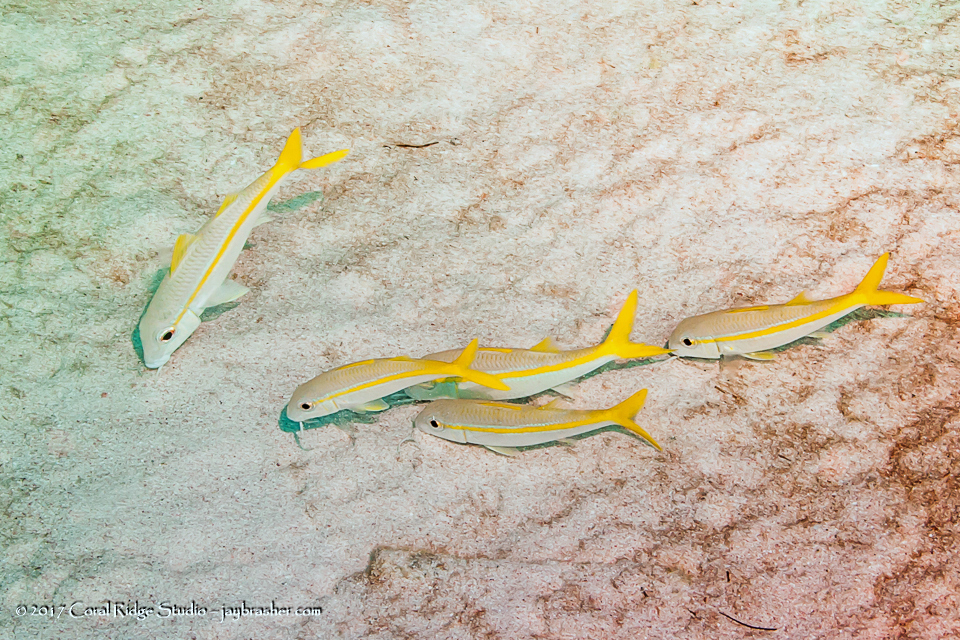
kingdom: Animalia
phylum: Chordata
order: Perciformes
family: Mullidae
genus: Mulloidichthys
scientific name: Mulloidichthys martinicus
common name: Yellow goatfish
